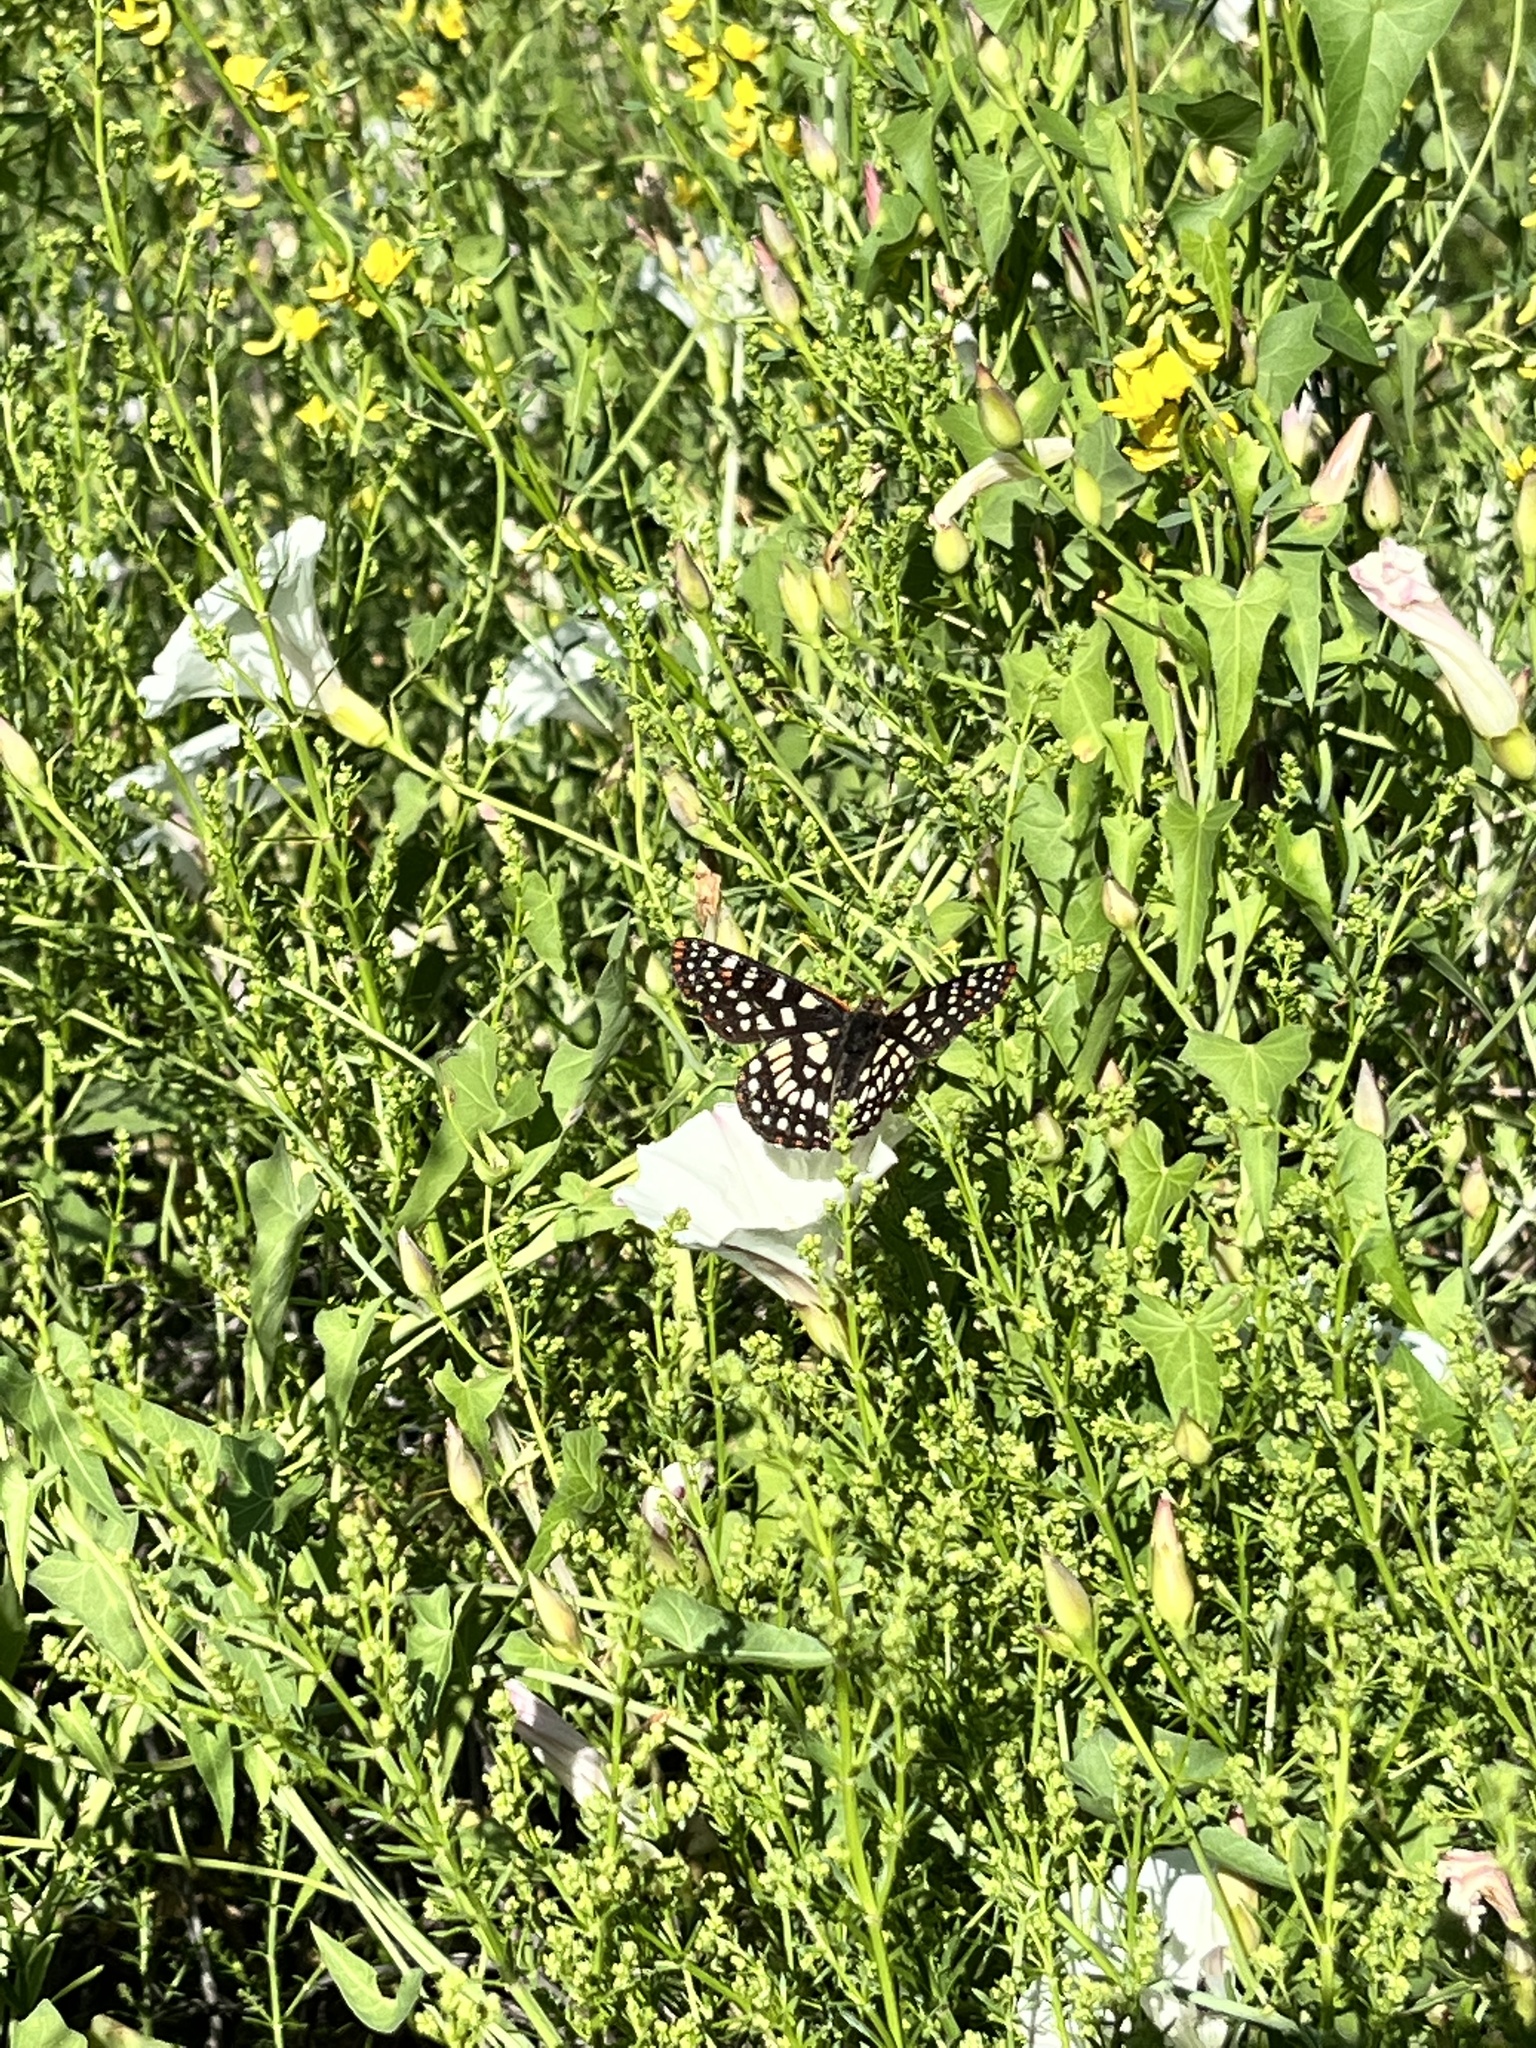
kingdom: Animalia
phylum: Arthropoda
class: Insecta
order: Lepidoptera
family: Nymphalidae
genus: Occidryas
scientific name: Occidryas chalcedona
